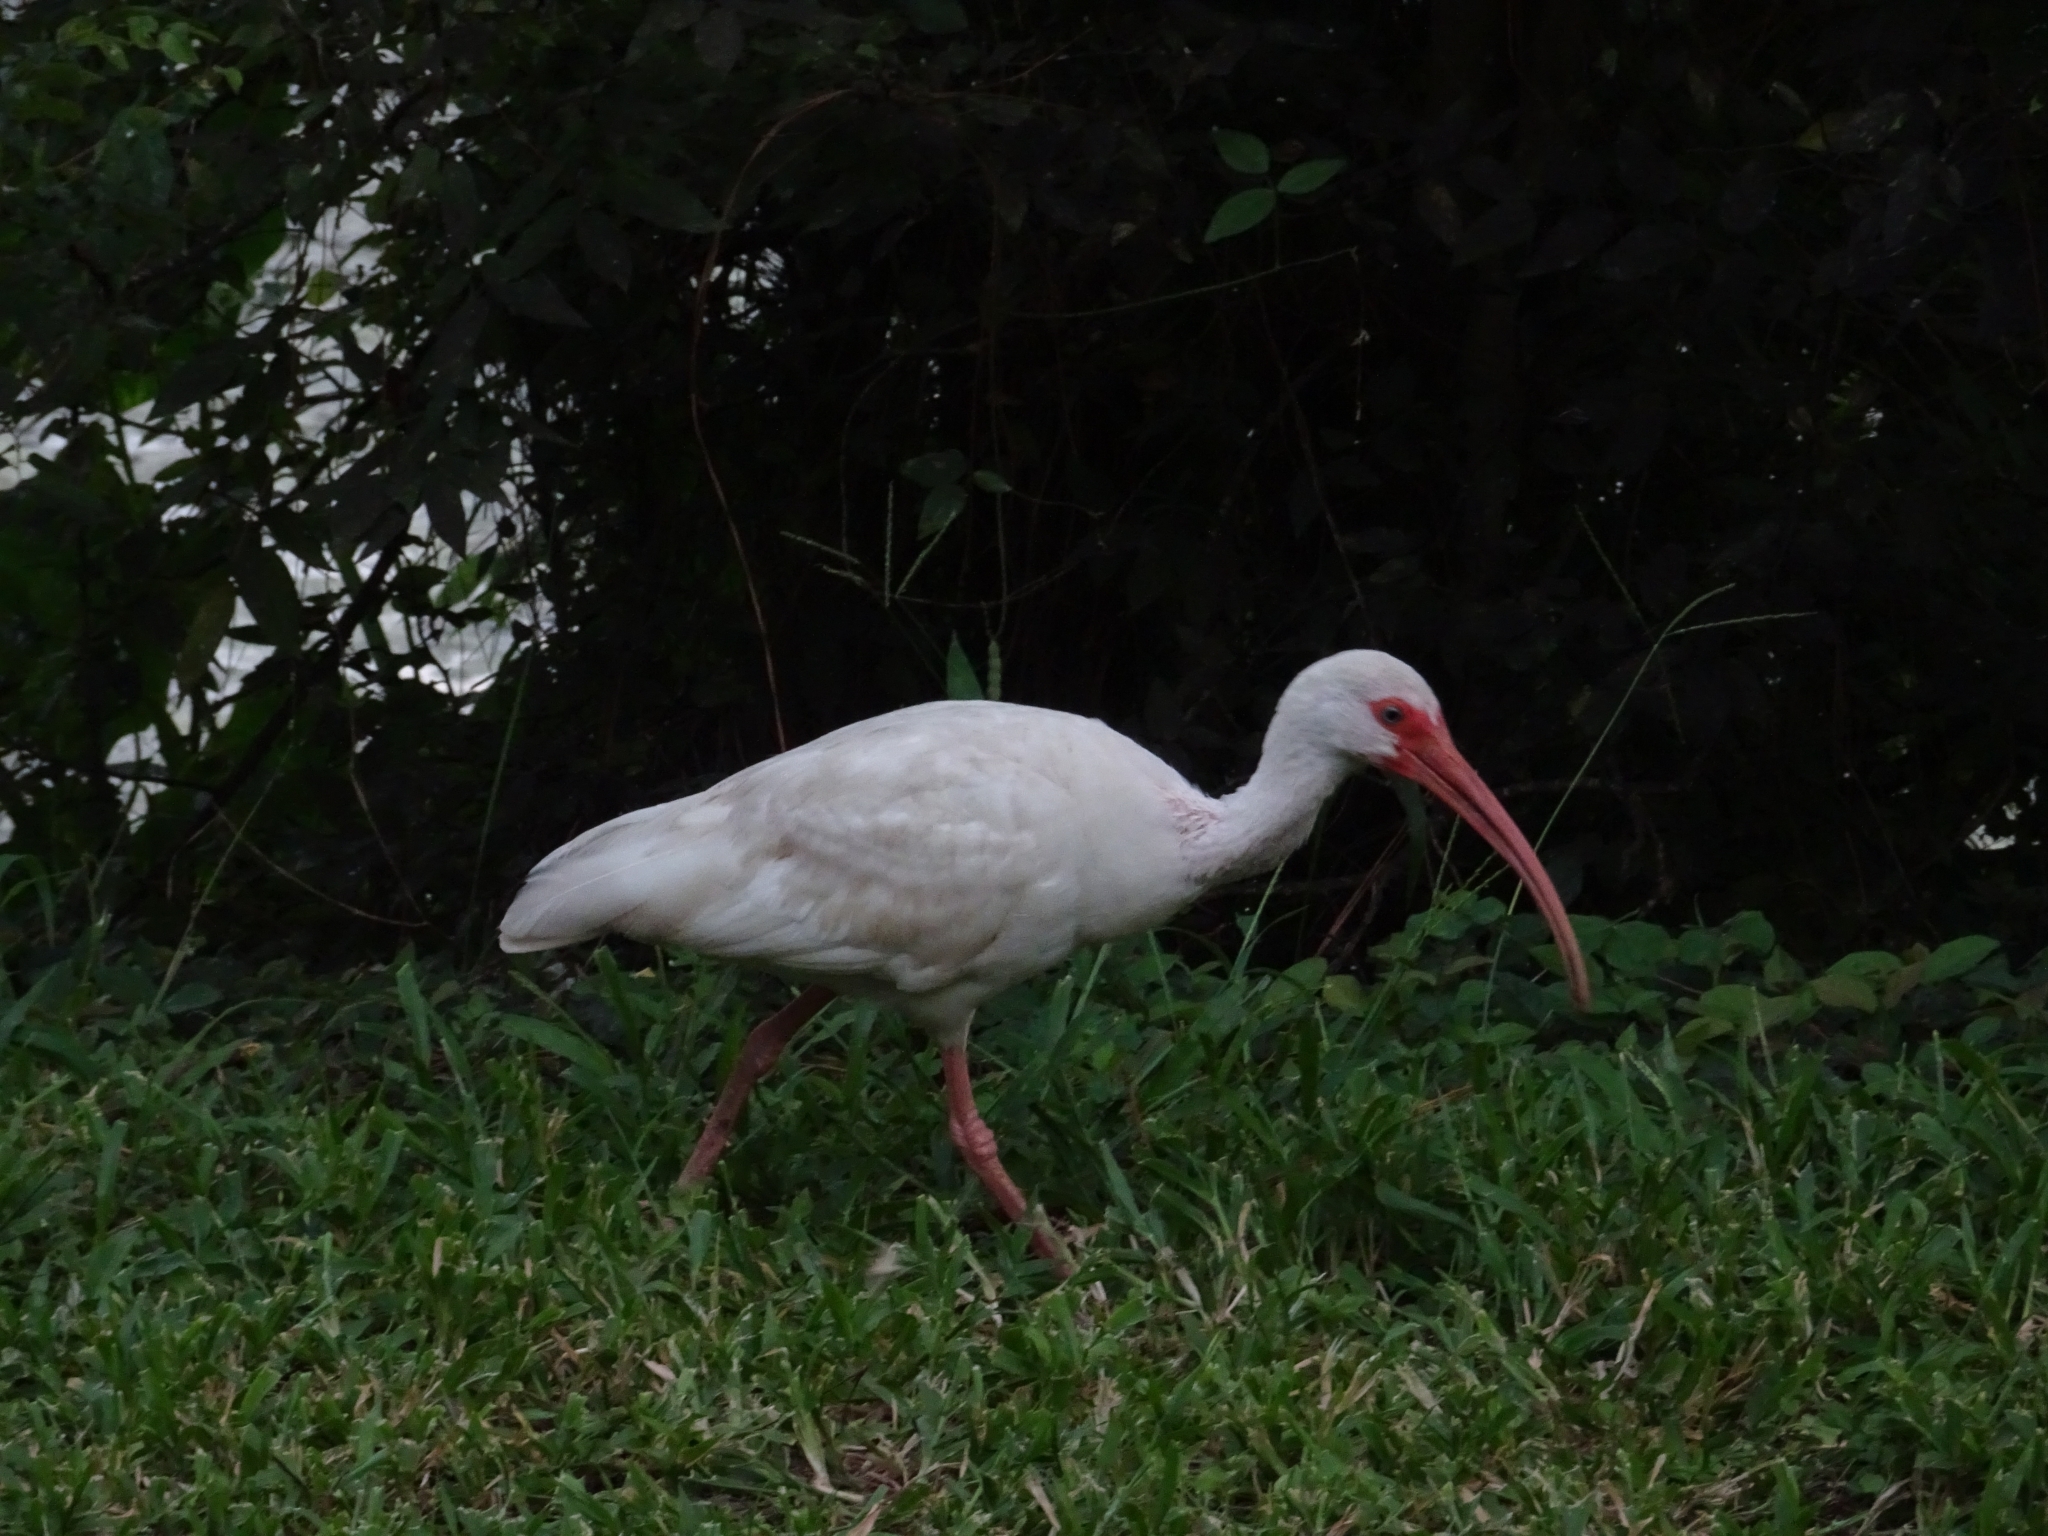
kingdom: Animalia
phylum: Chordata
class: Aves
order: Pelecaniformes
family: Threskiornithidae
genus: Eudocimus
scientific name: Eudocimus albus
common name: White ibis
